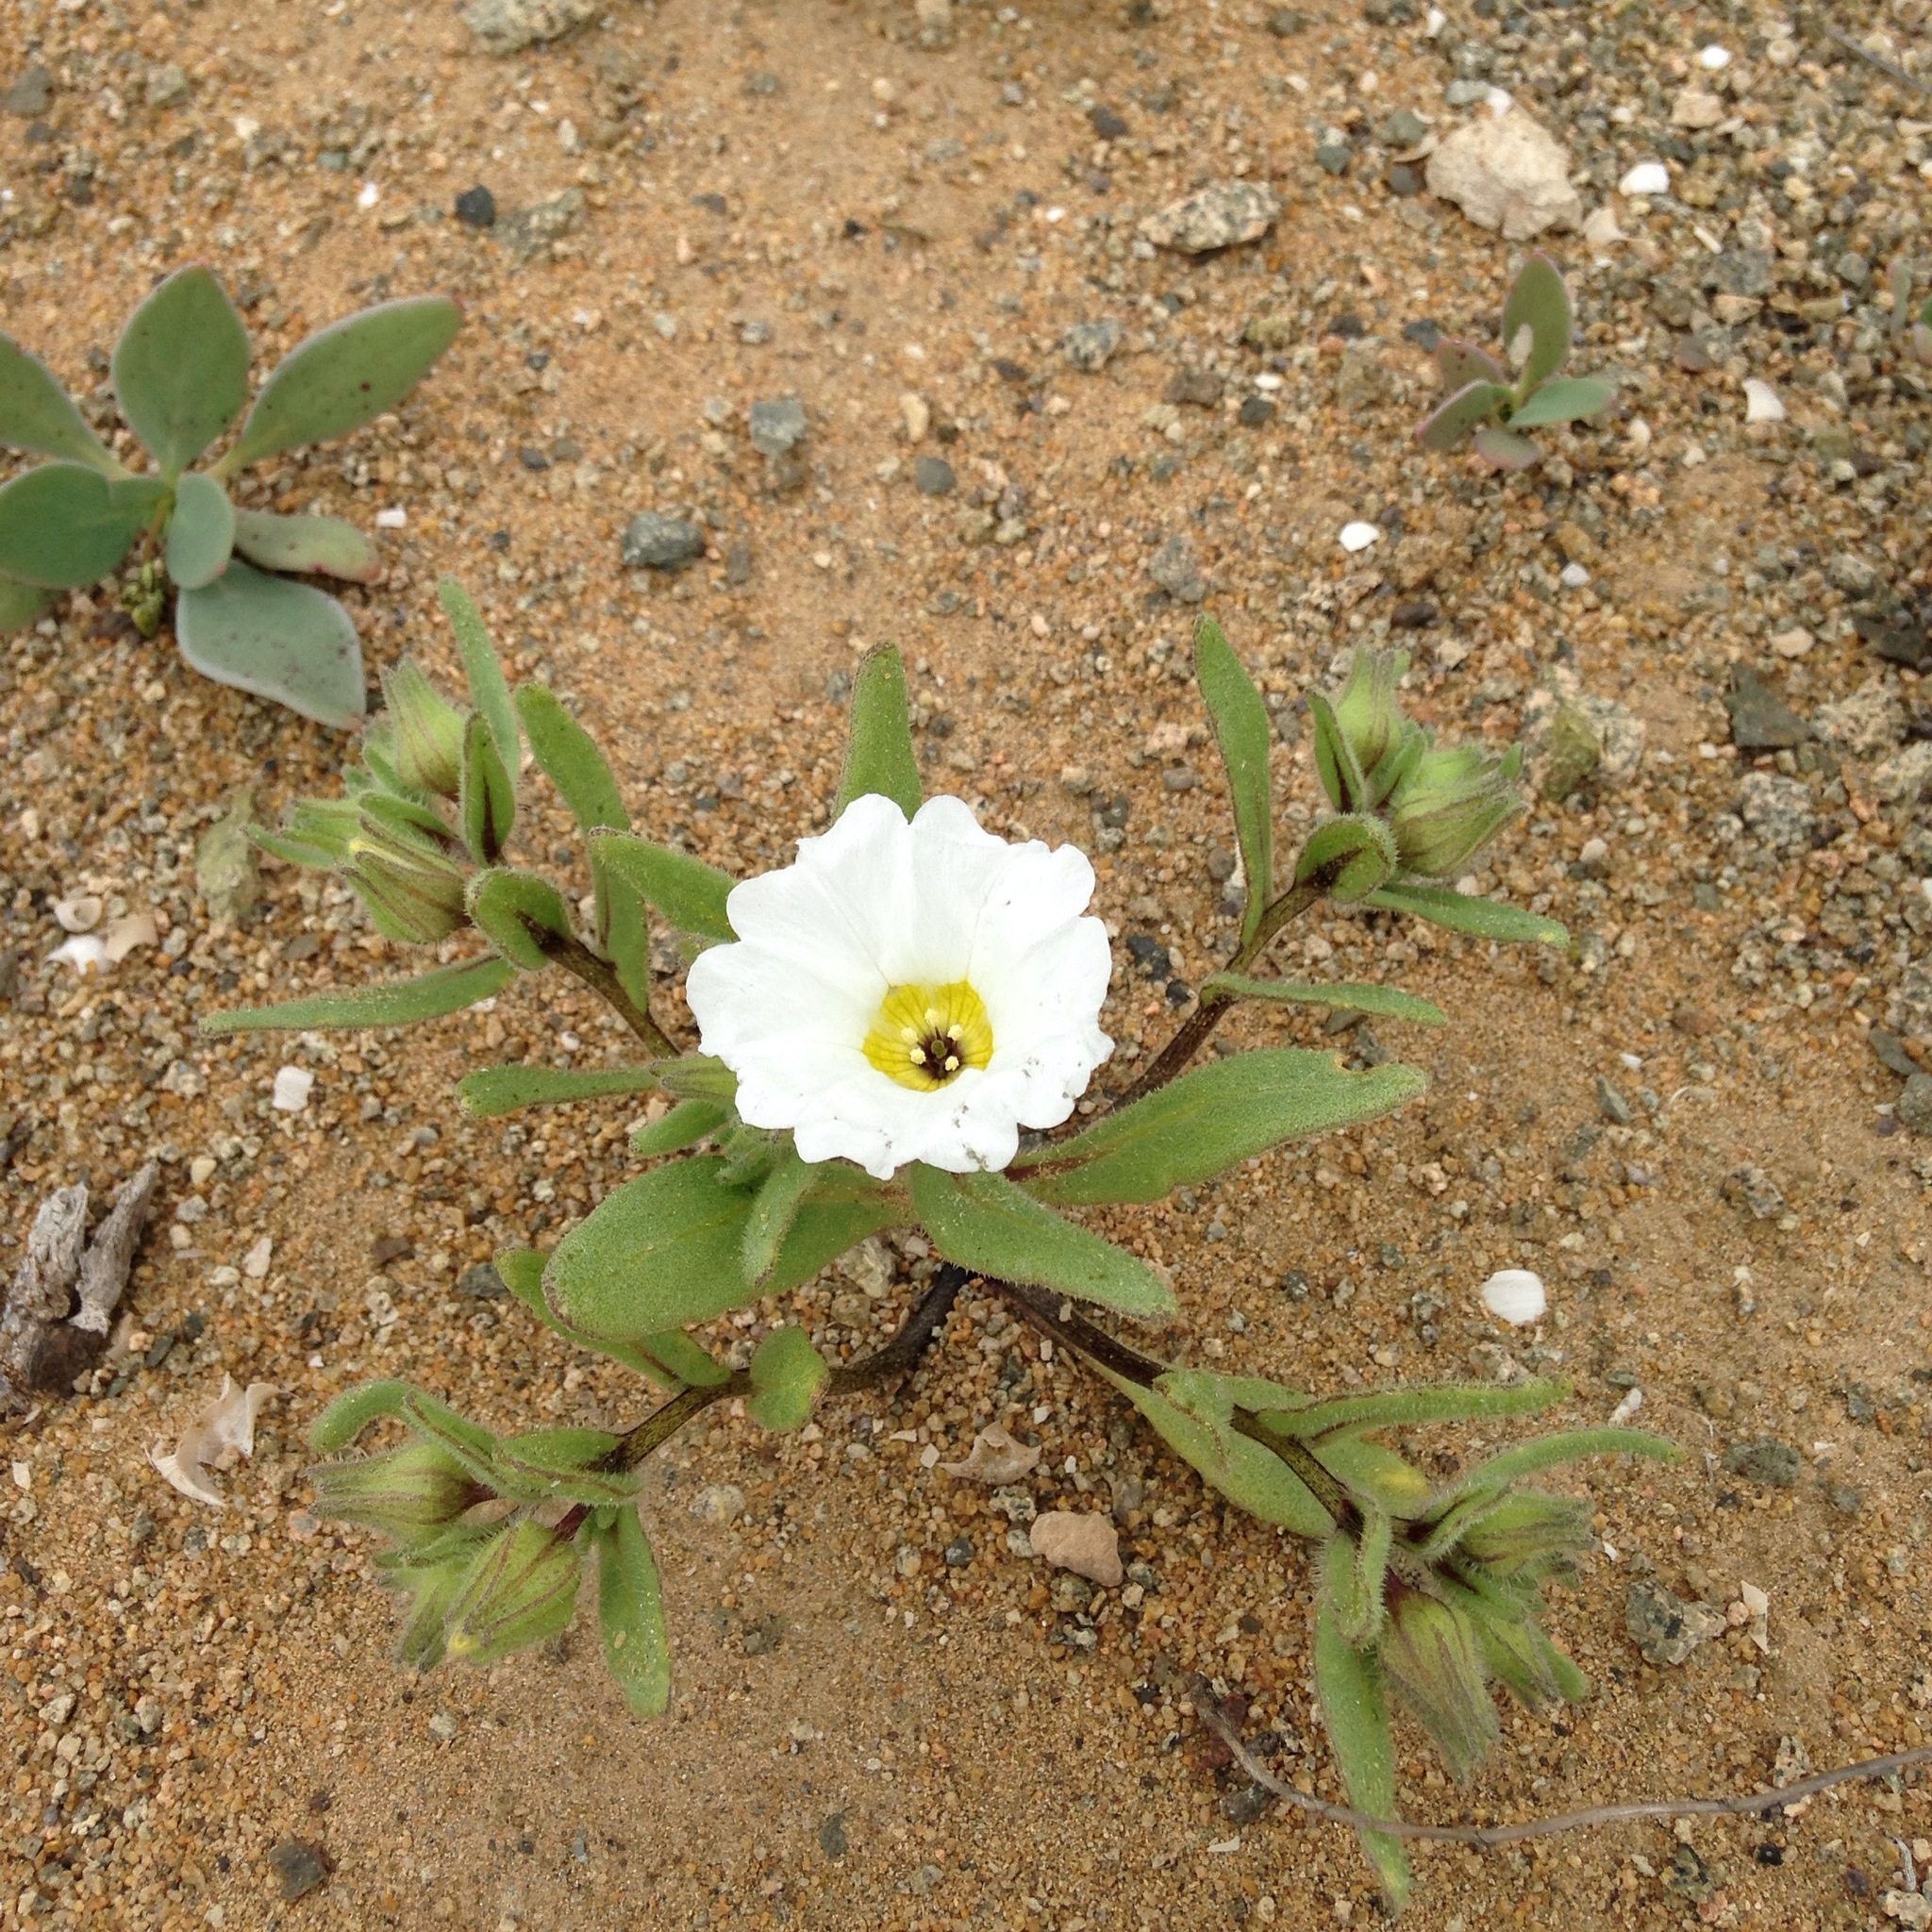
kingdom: Plantae
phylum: Tracheophyta
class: Magnoliopsida
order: Solanales
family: Solanaceae
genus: Nolana
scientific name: Nolana acuminata
